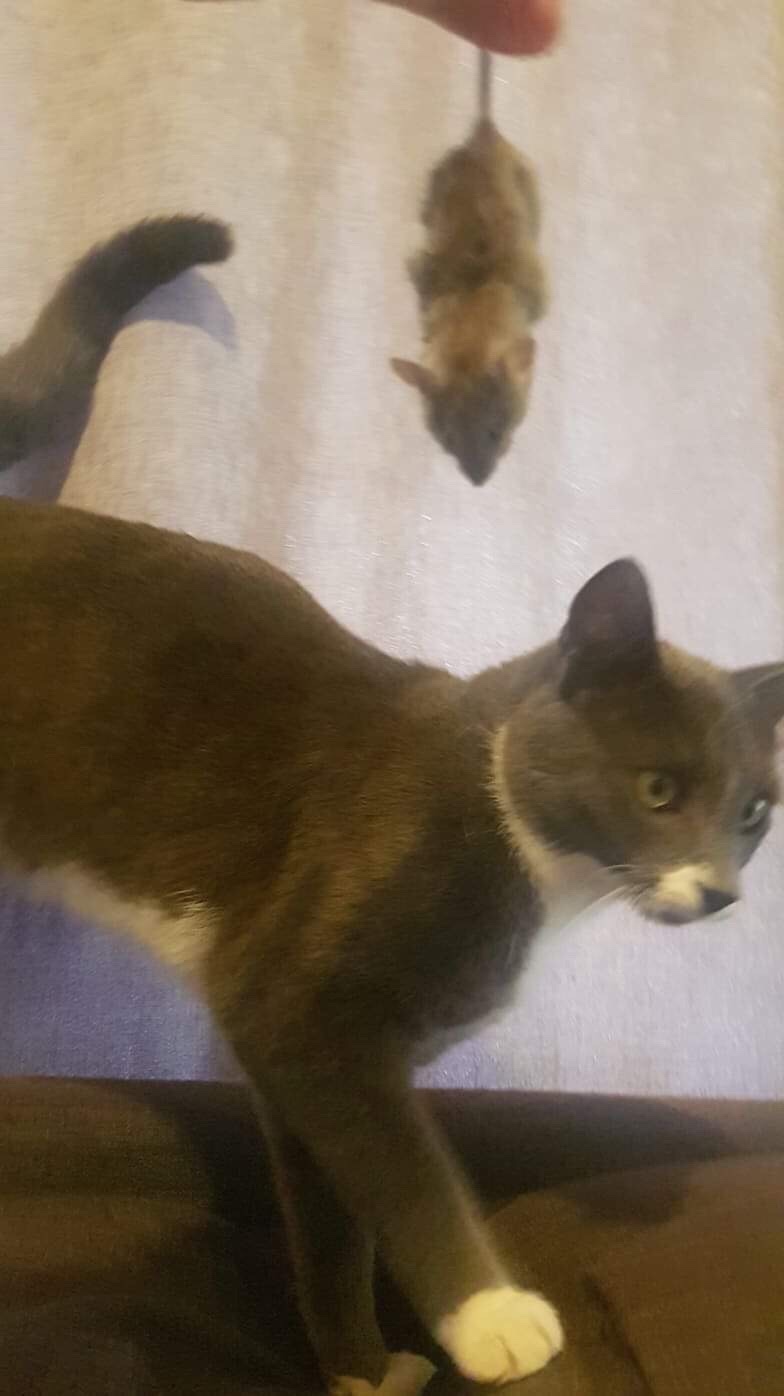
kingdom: Animalia
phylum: Chordata
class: Mammalia
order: Rodentia
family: Muridae
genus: Mus
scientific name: Mus musculus
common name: House mouse
